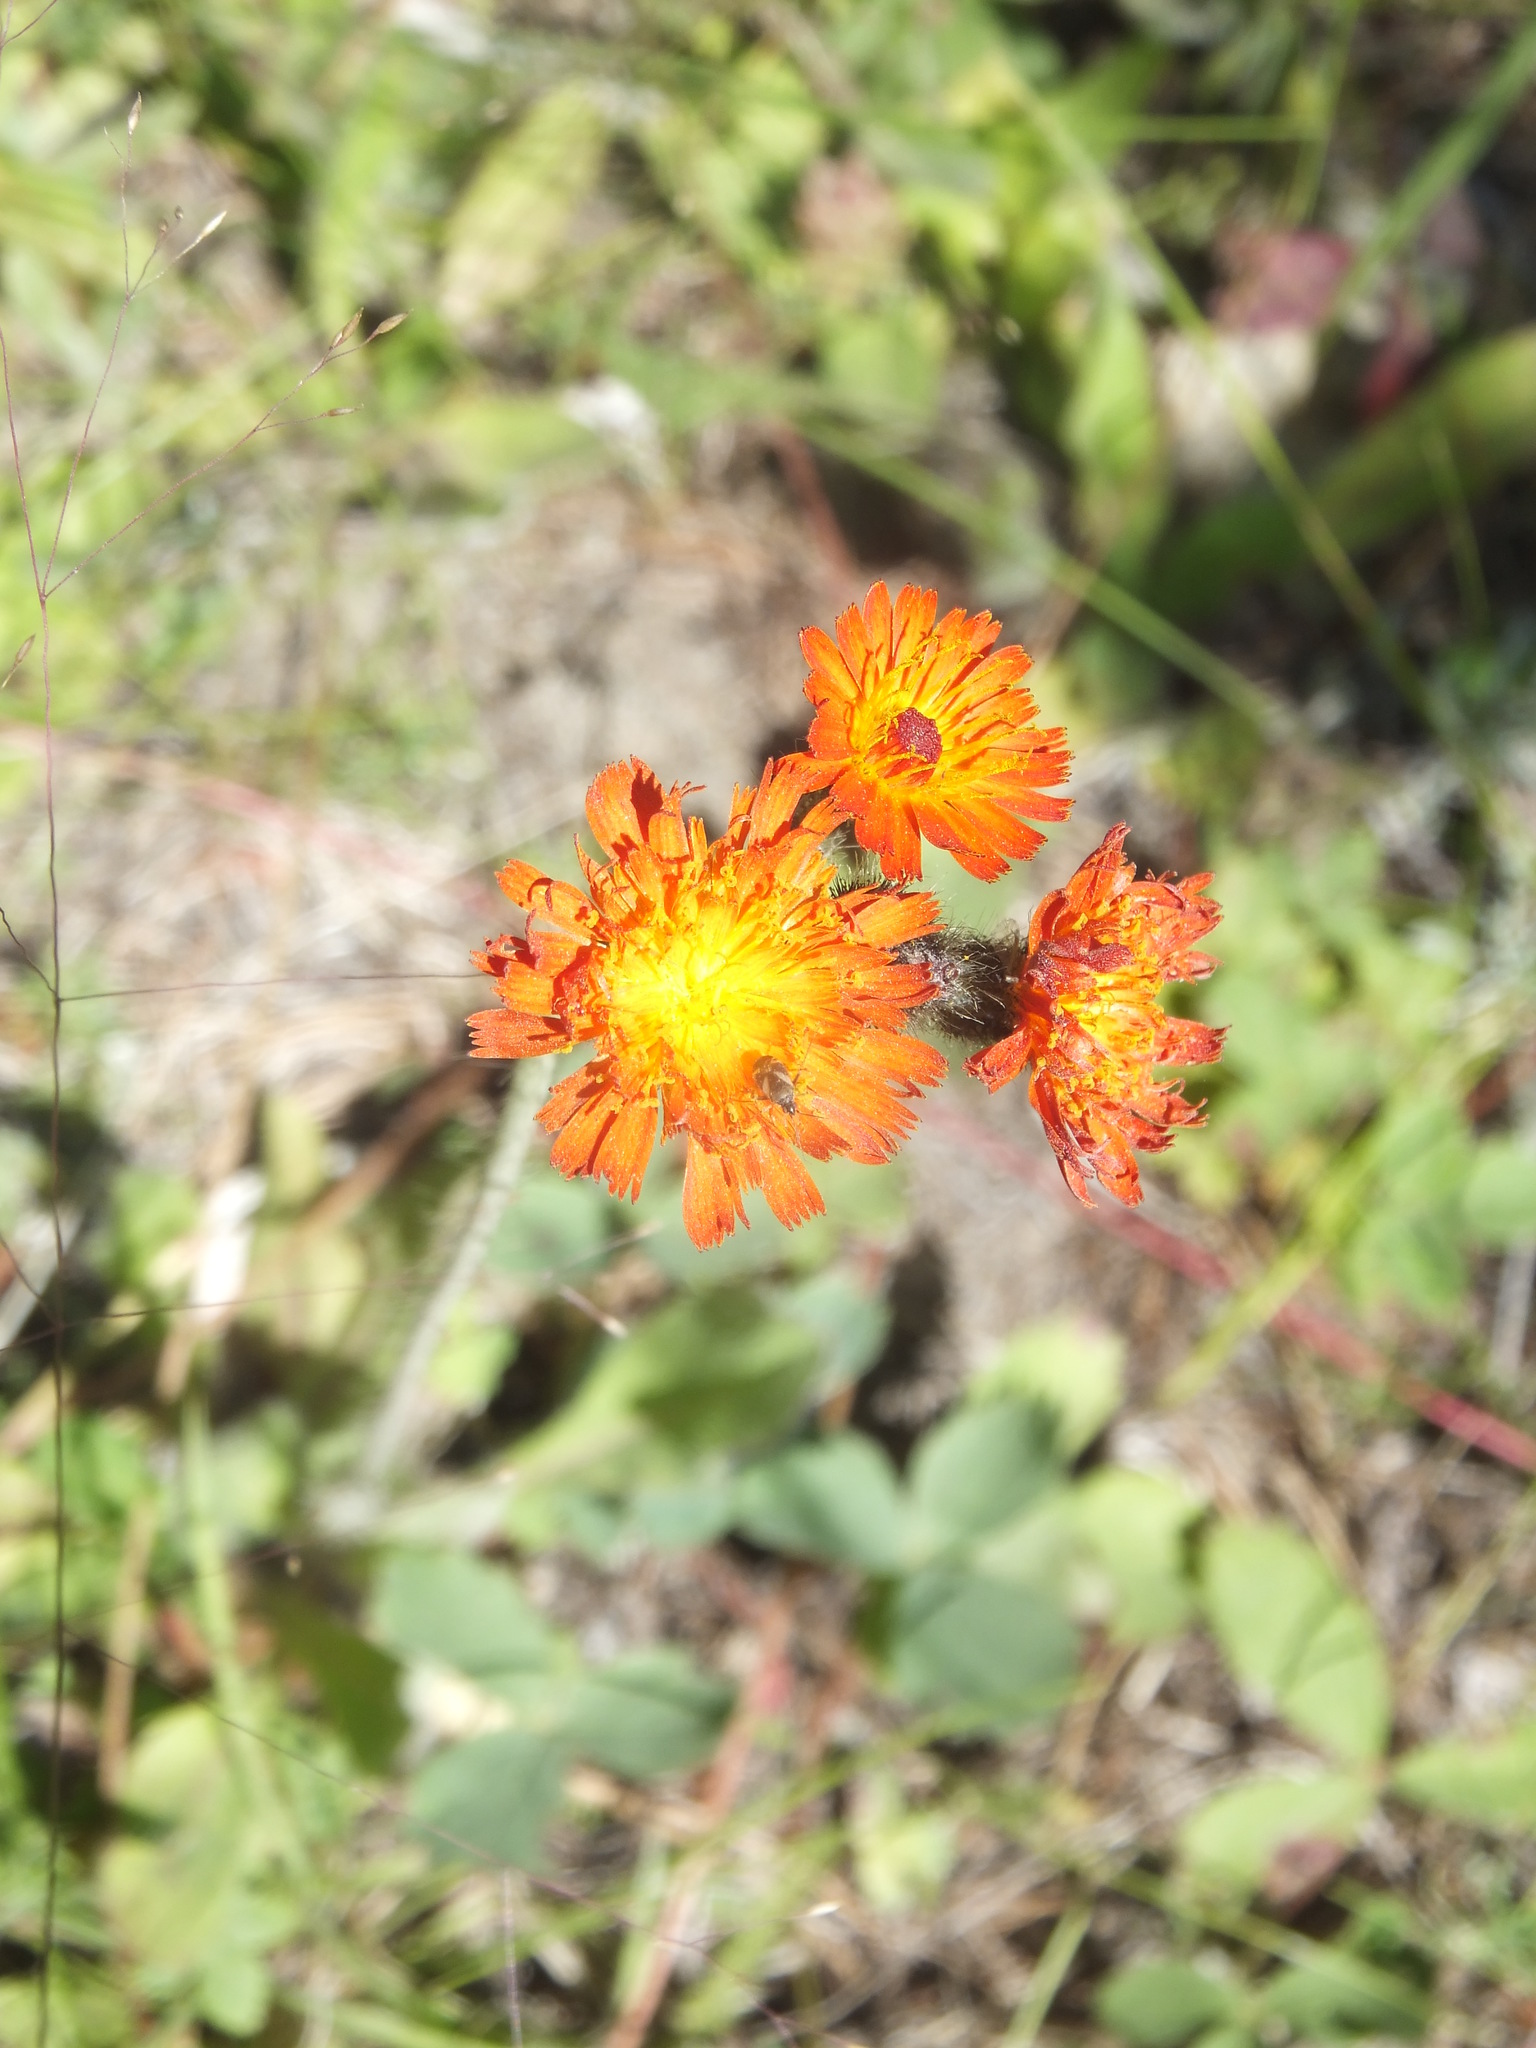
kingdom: Plantae
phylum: Tracheophyta
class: Magnoliopsida
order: Asterales
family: Asteraceae
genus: Pilosella
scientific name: Pilosella aurantiaca
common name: Fox-and-cubs
